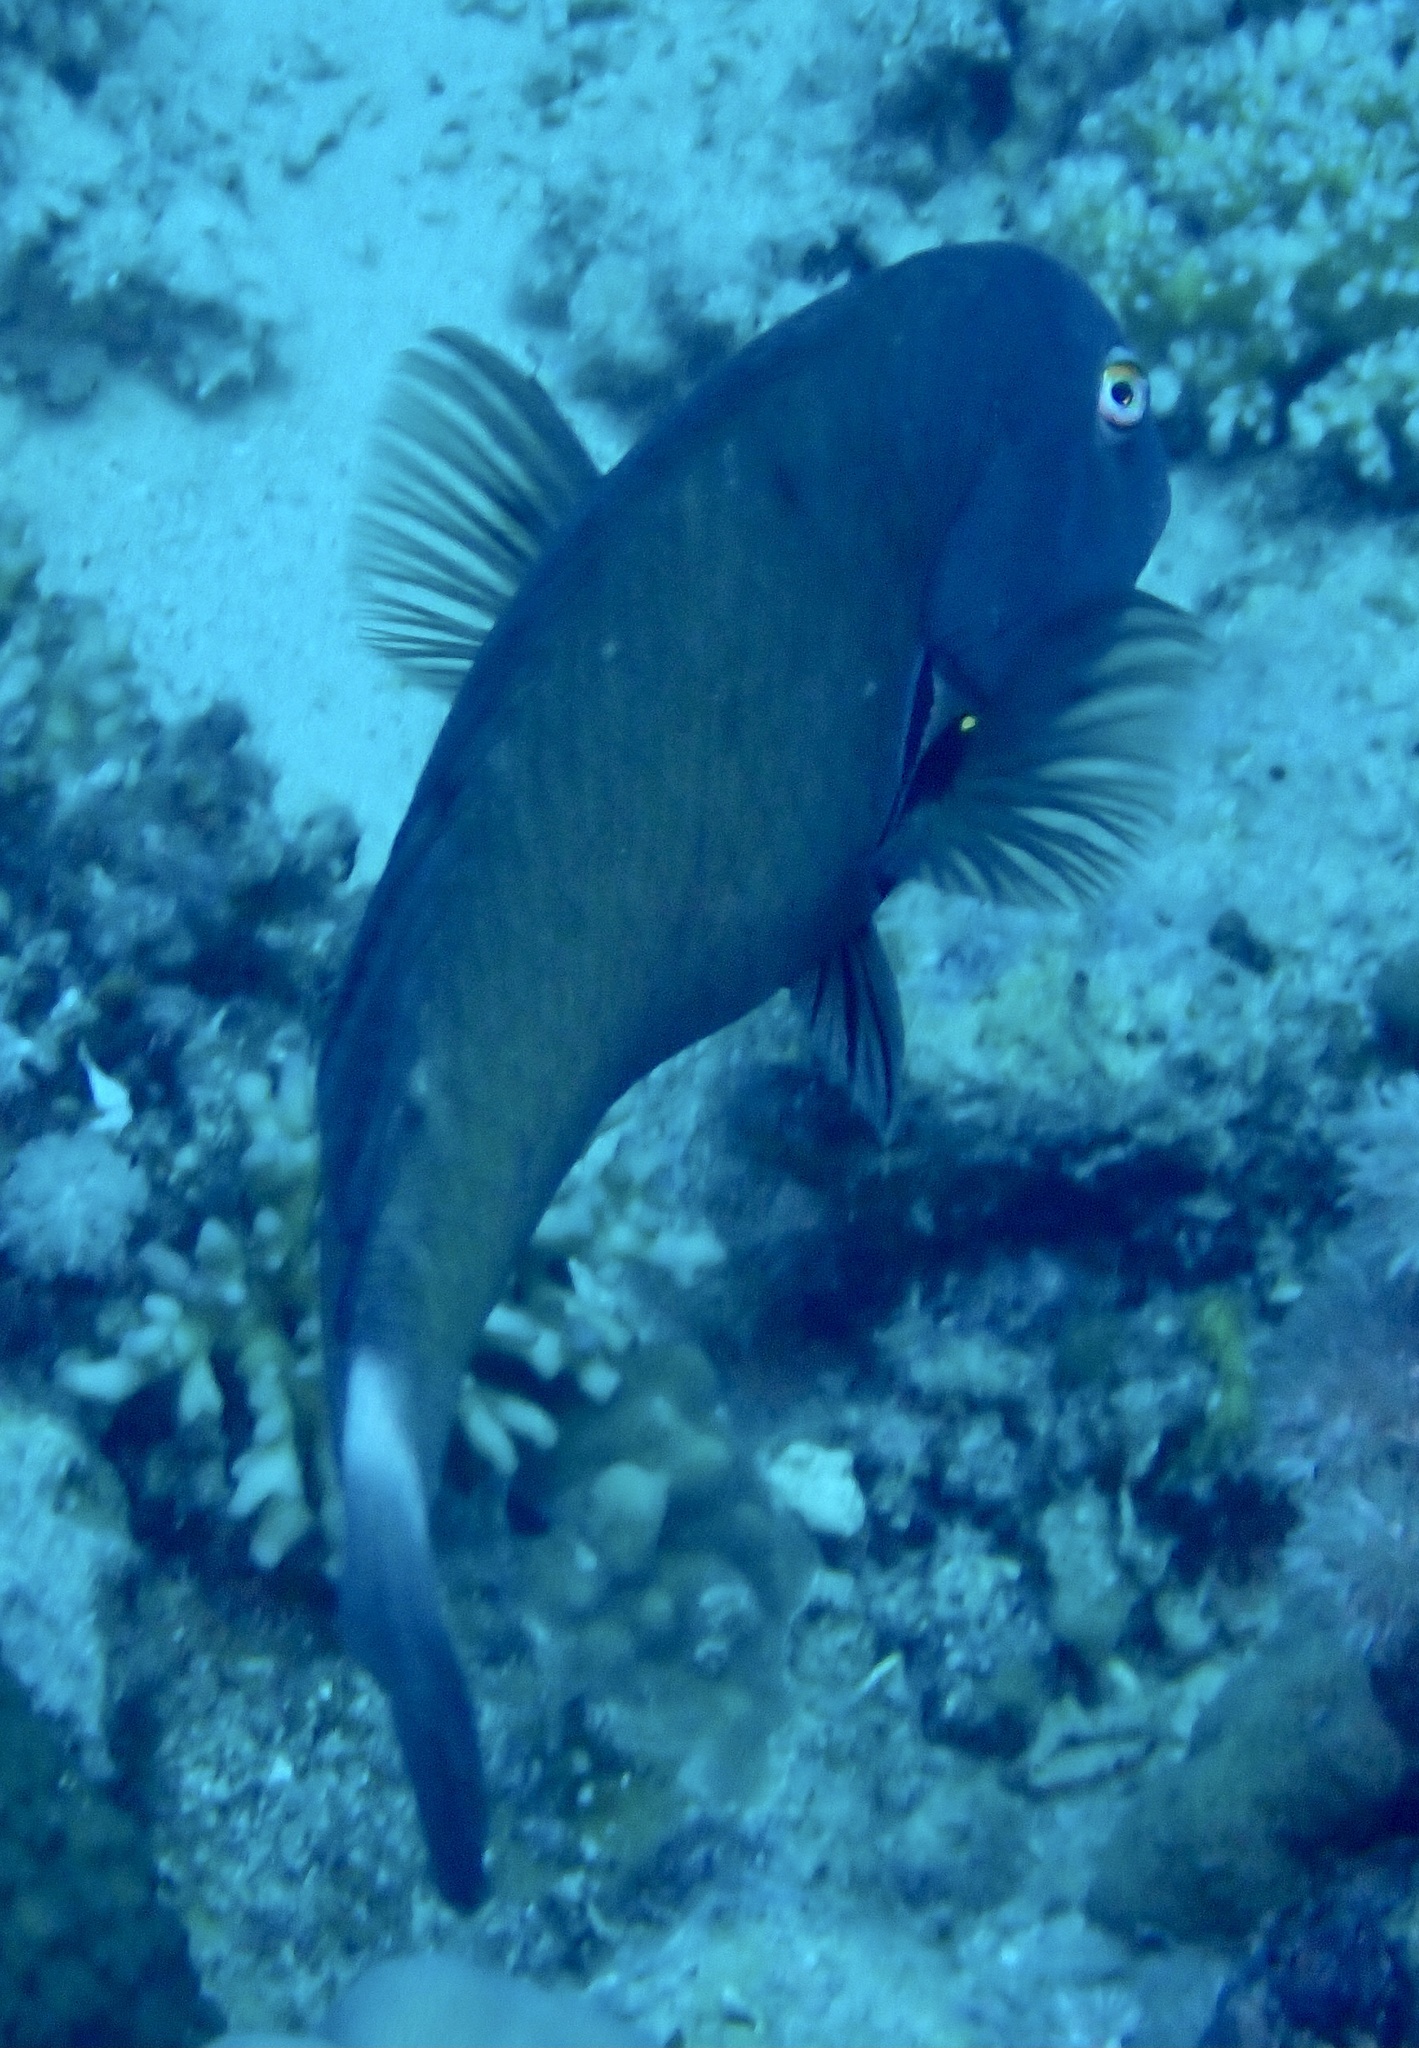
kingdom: Animalia
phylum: Chordata
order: Perciformes
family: Labridae
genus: Novaculichthys
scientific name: Novaculichthys taeniourus
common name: Rockmover wrasse
